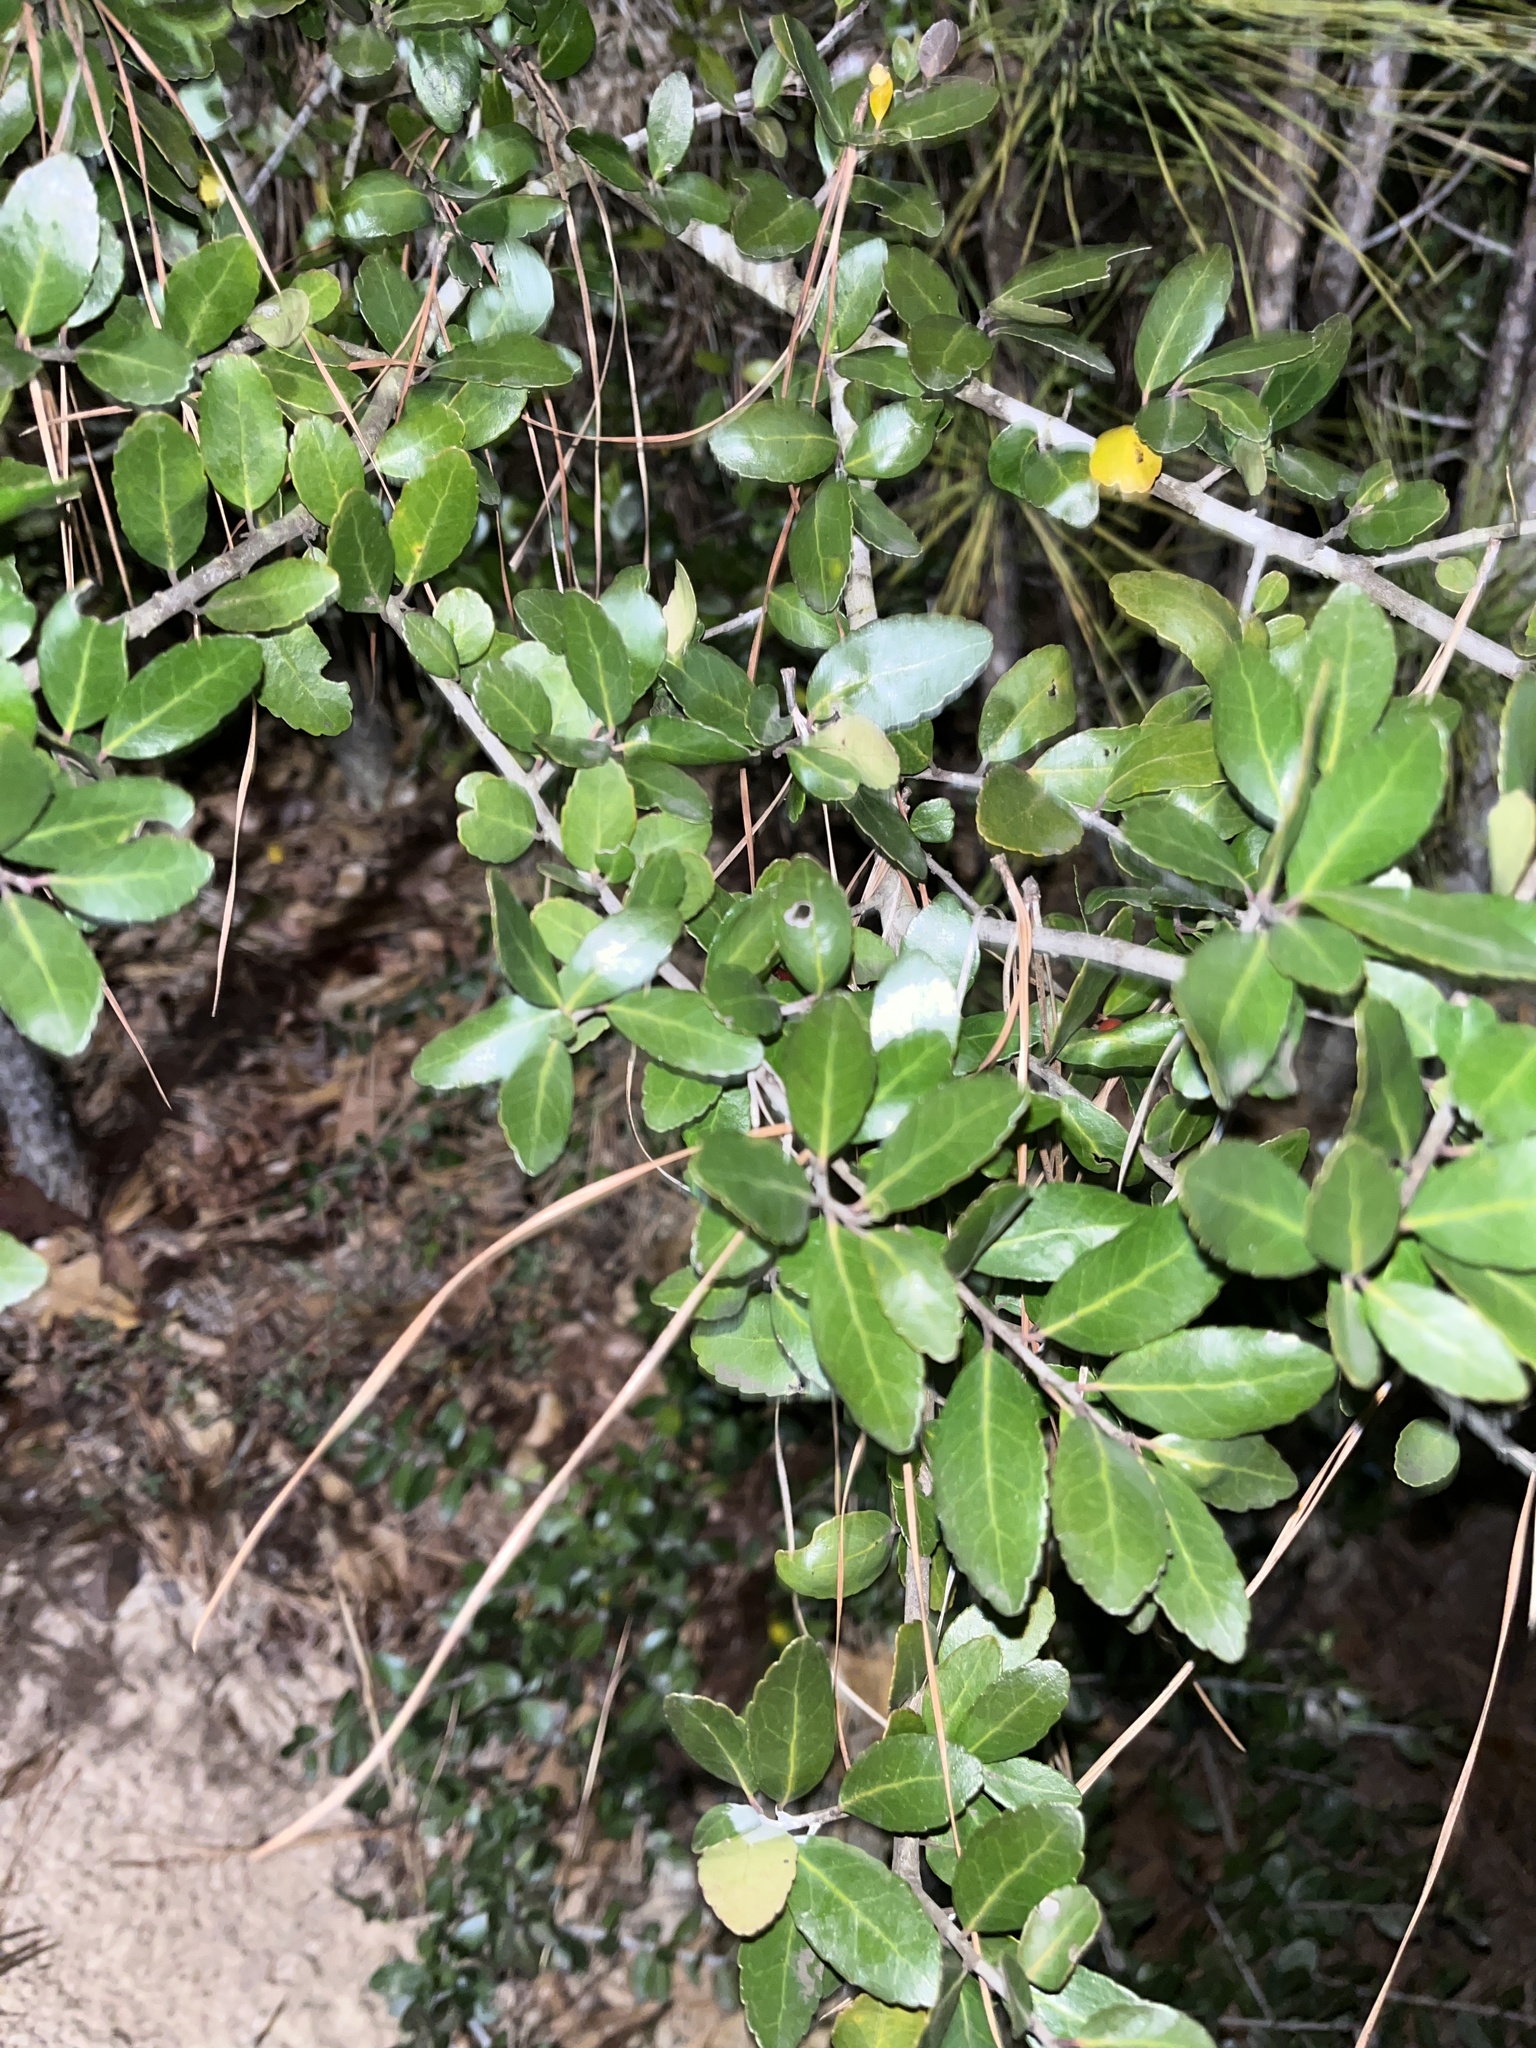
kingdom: Plantae
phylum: Tracheophyta
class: Magnoliopsida
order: Aquifoliales
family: Aquifoliaceae
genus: Ilex
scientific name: Ilex vomitoria
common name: Yaupon holly
